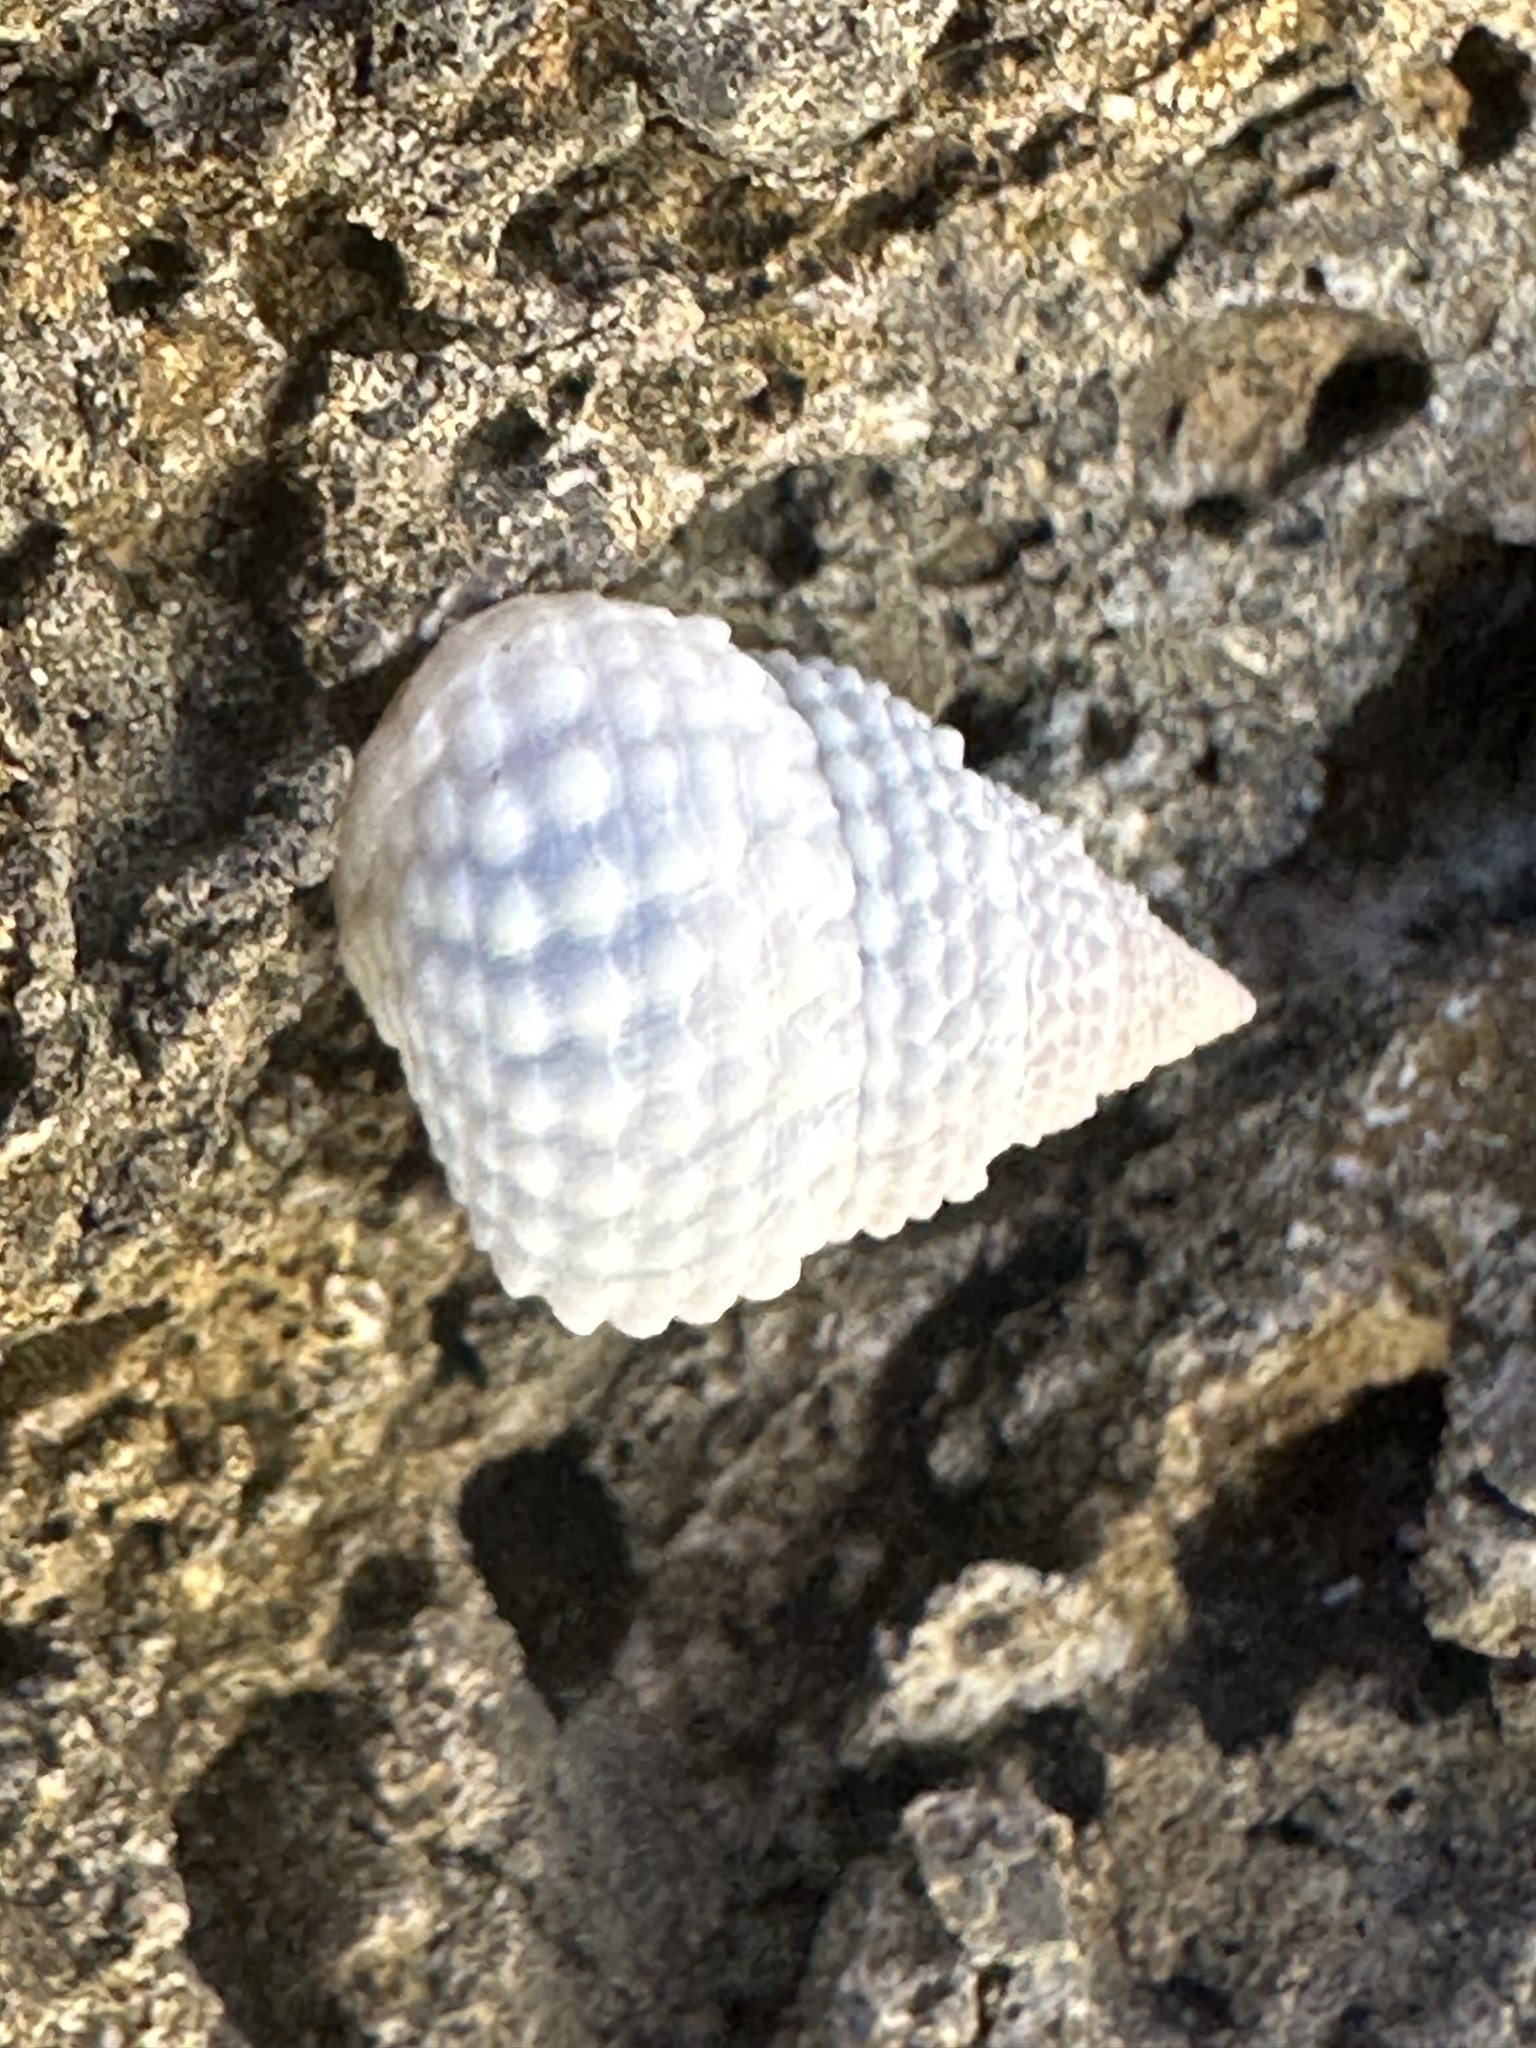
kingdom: Animalia
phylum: Mollusca
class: Gastropoda
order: Littorinimorpha
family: Littorinidae
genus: Cenchritis
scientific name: Cenchritis muricatus
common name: Beaded periwinkle
